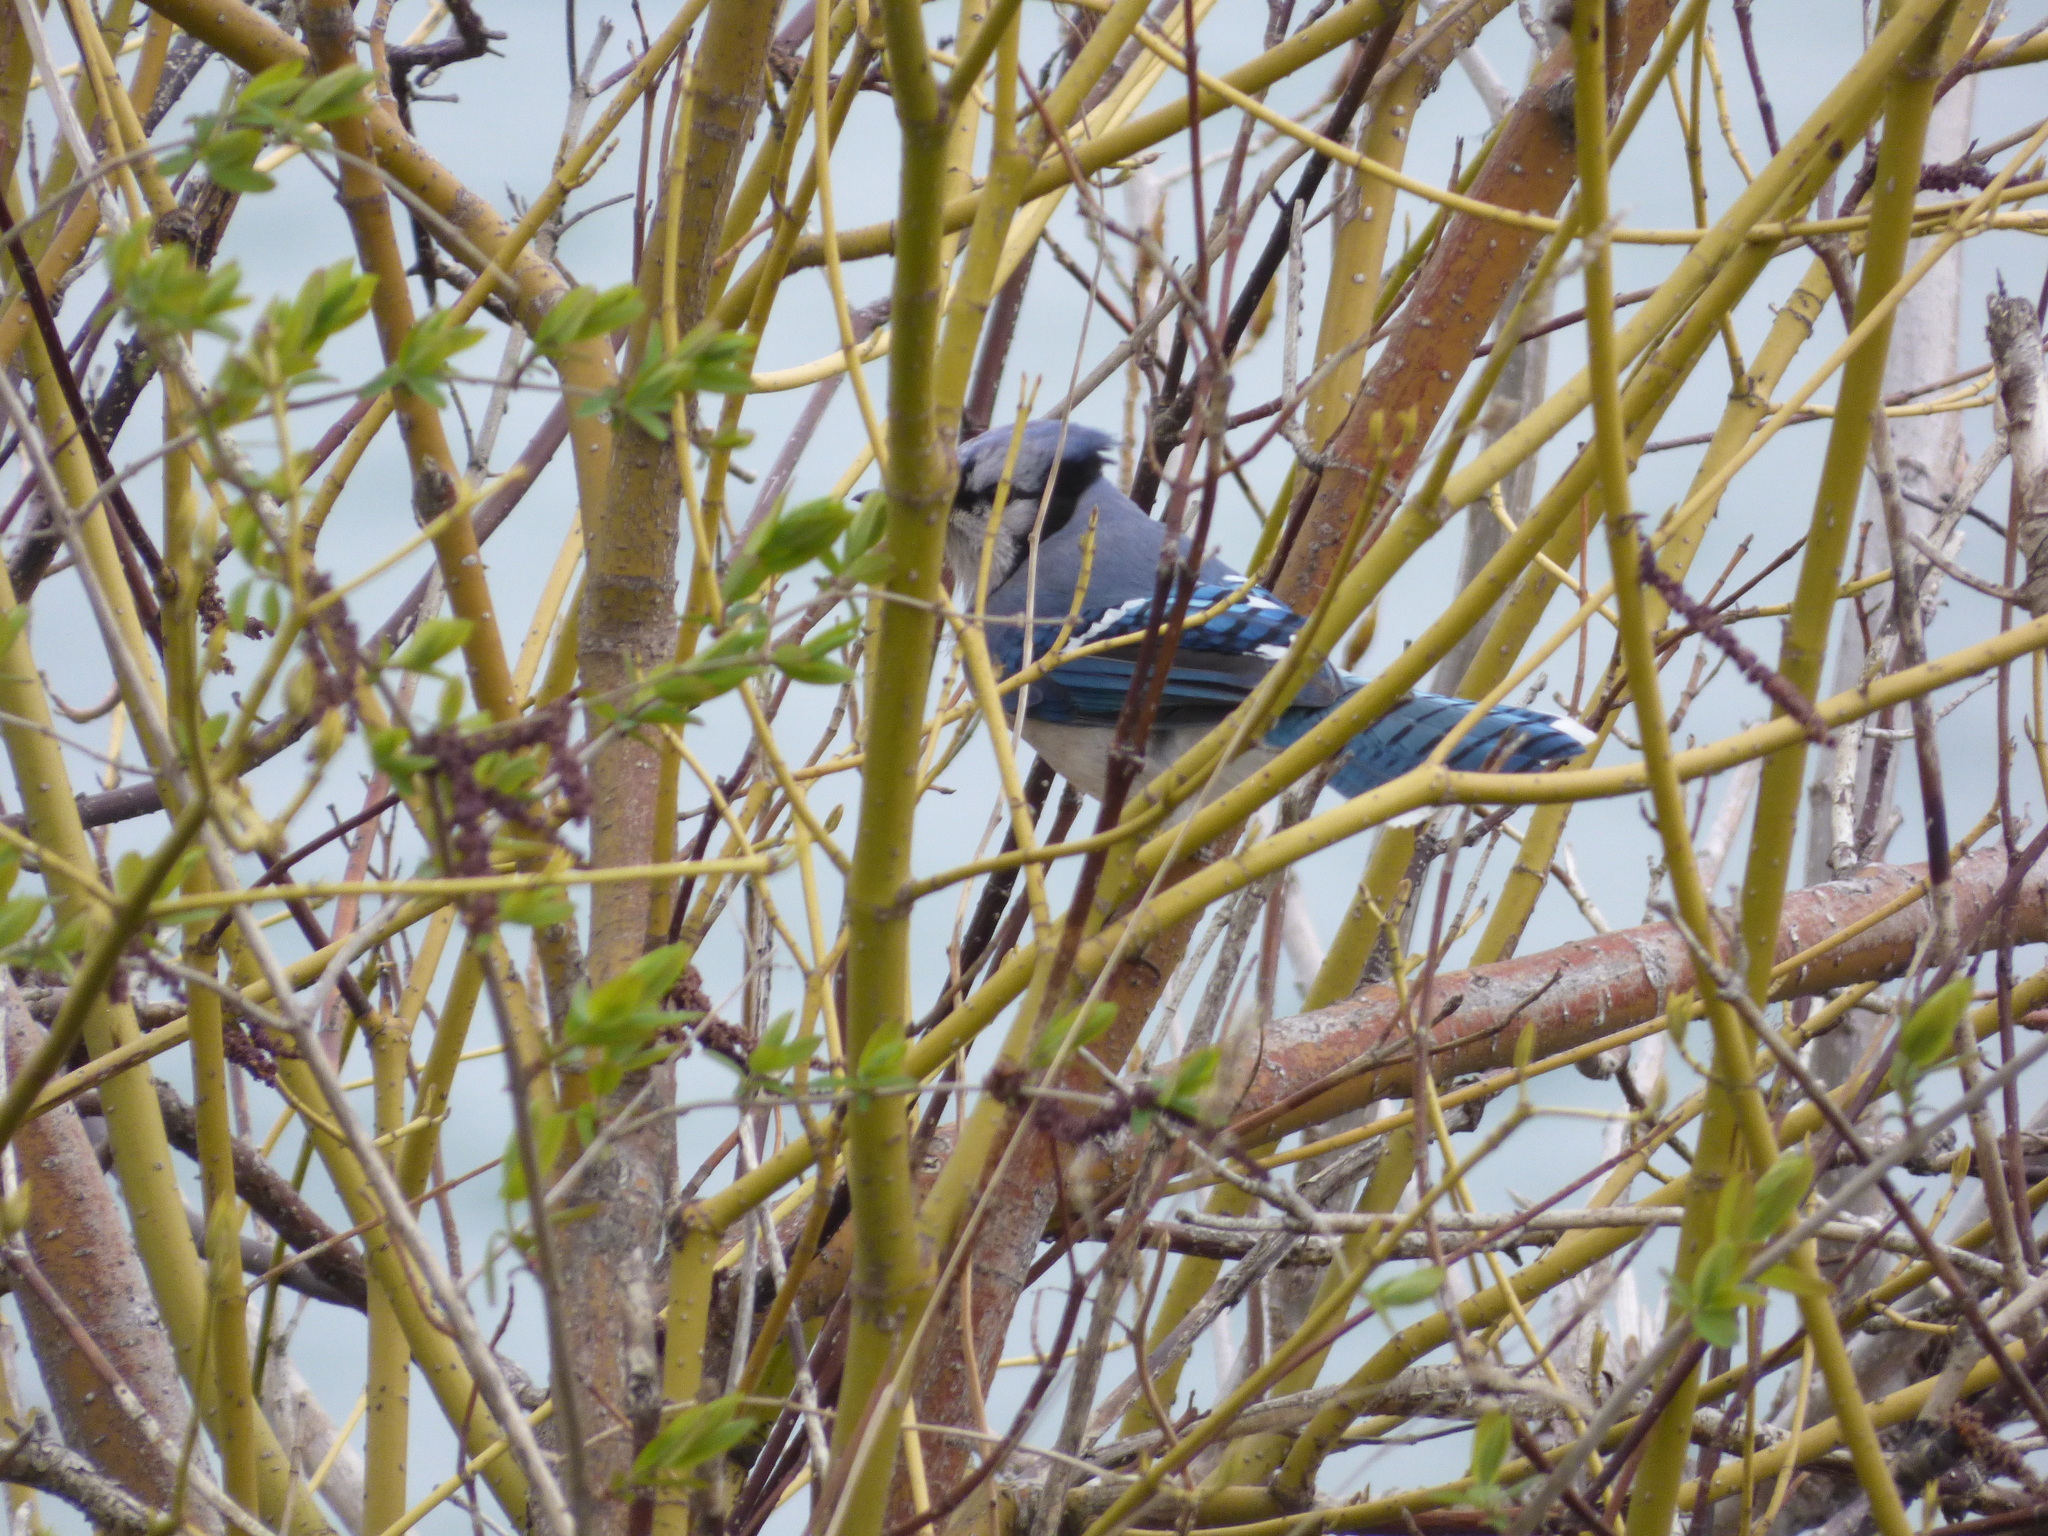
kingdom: Animalia
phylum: Chordata
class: Aves
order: Passeriformes
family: Corvidae
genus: Cyanocitta
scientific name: Cyanocitta cristata
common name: Blue jay
